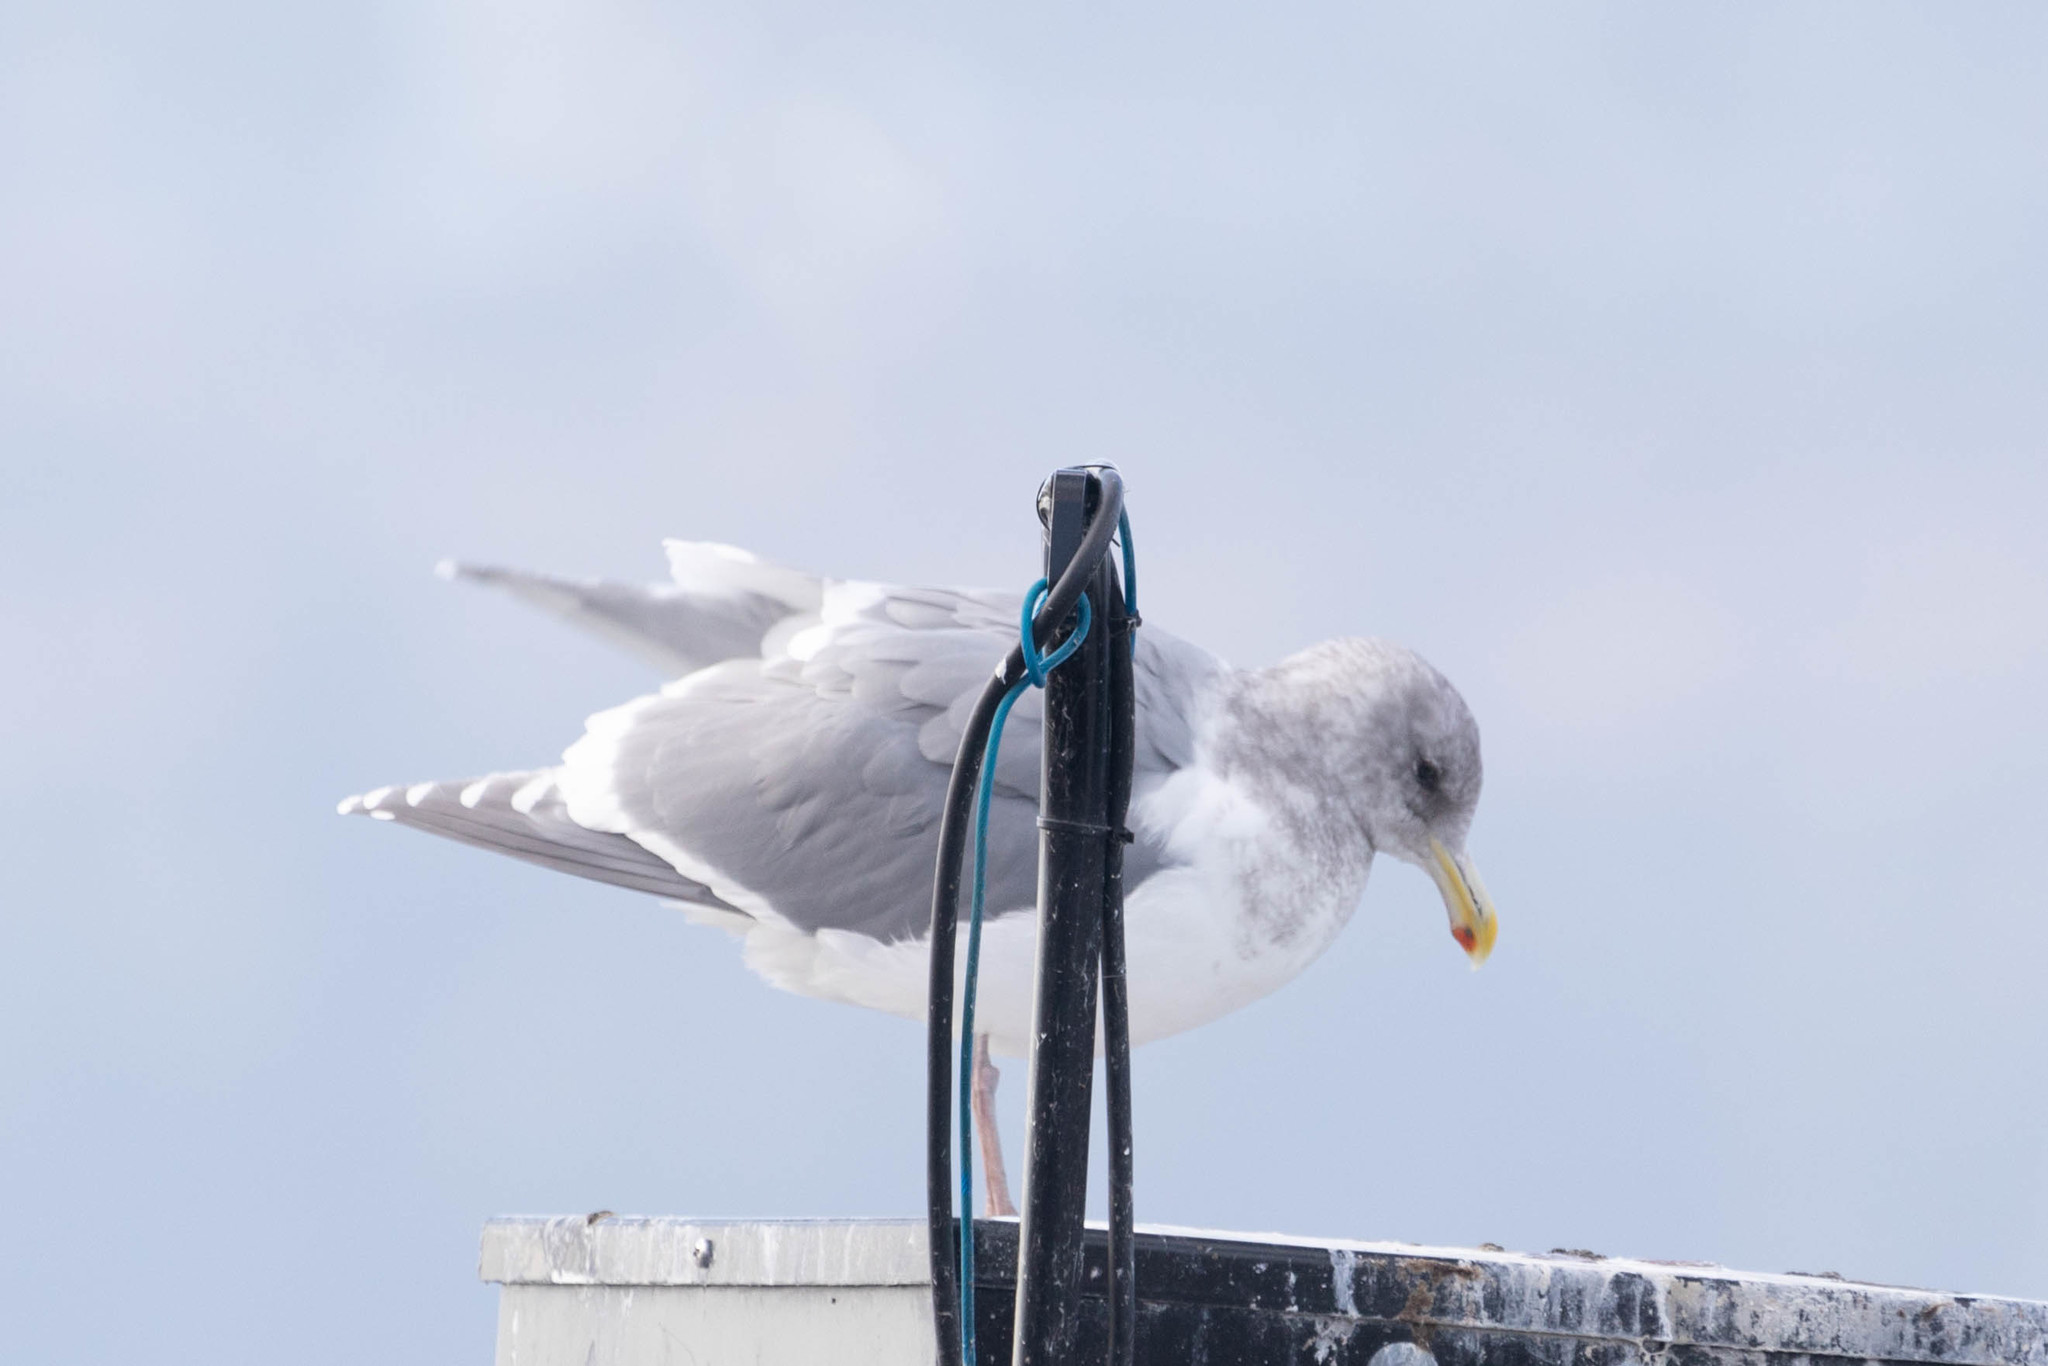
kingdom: Animalia
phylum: Chordata
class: Aves
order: Charadriiformes
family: Laridae
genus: Larus
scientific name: Larus glaucescens
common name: Glaucous-winged gull
